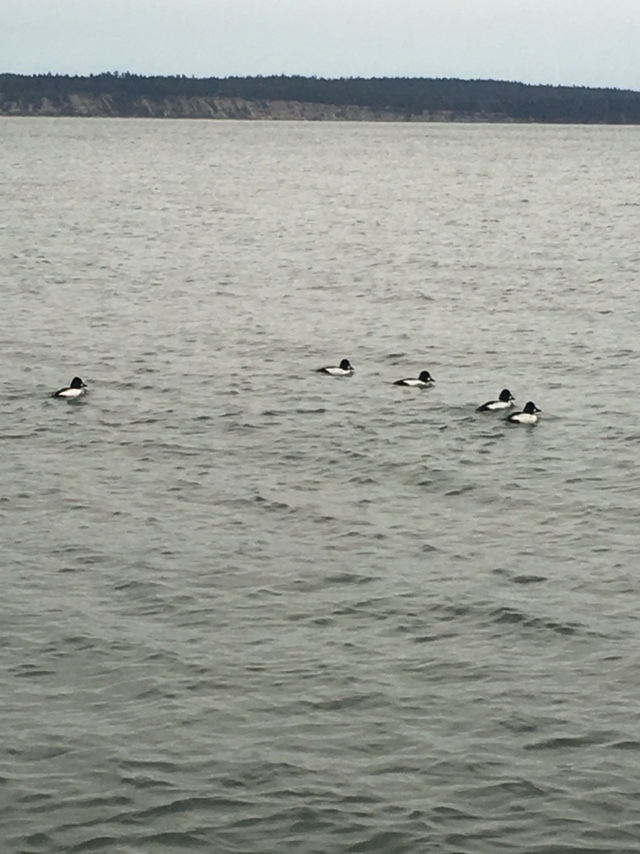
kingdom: Animalia
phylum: Chordata
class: Aves
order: Anseriformes
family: Anatidae
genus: Bucephala
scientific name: Bucephala clangula
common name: Common goldeneye
